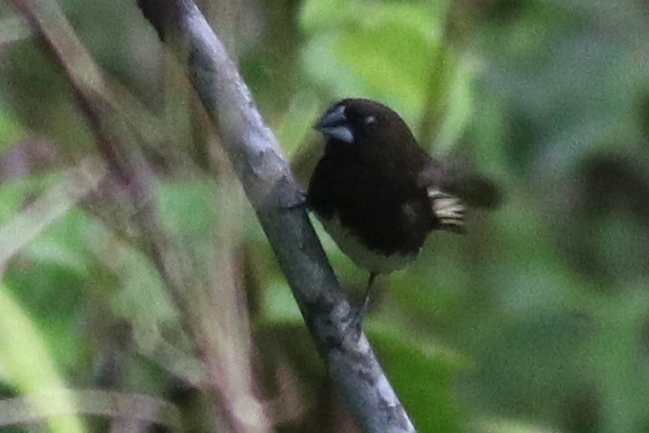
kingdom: Animalia
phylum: Chordata
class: Aves
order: Passeriformes
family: Estrildidae
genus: Lonchura
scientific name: Lonchura leucogastra
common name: White-bellied munia
